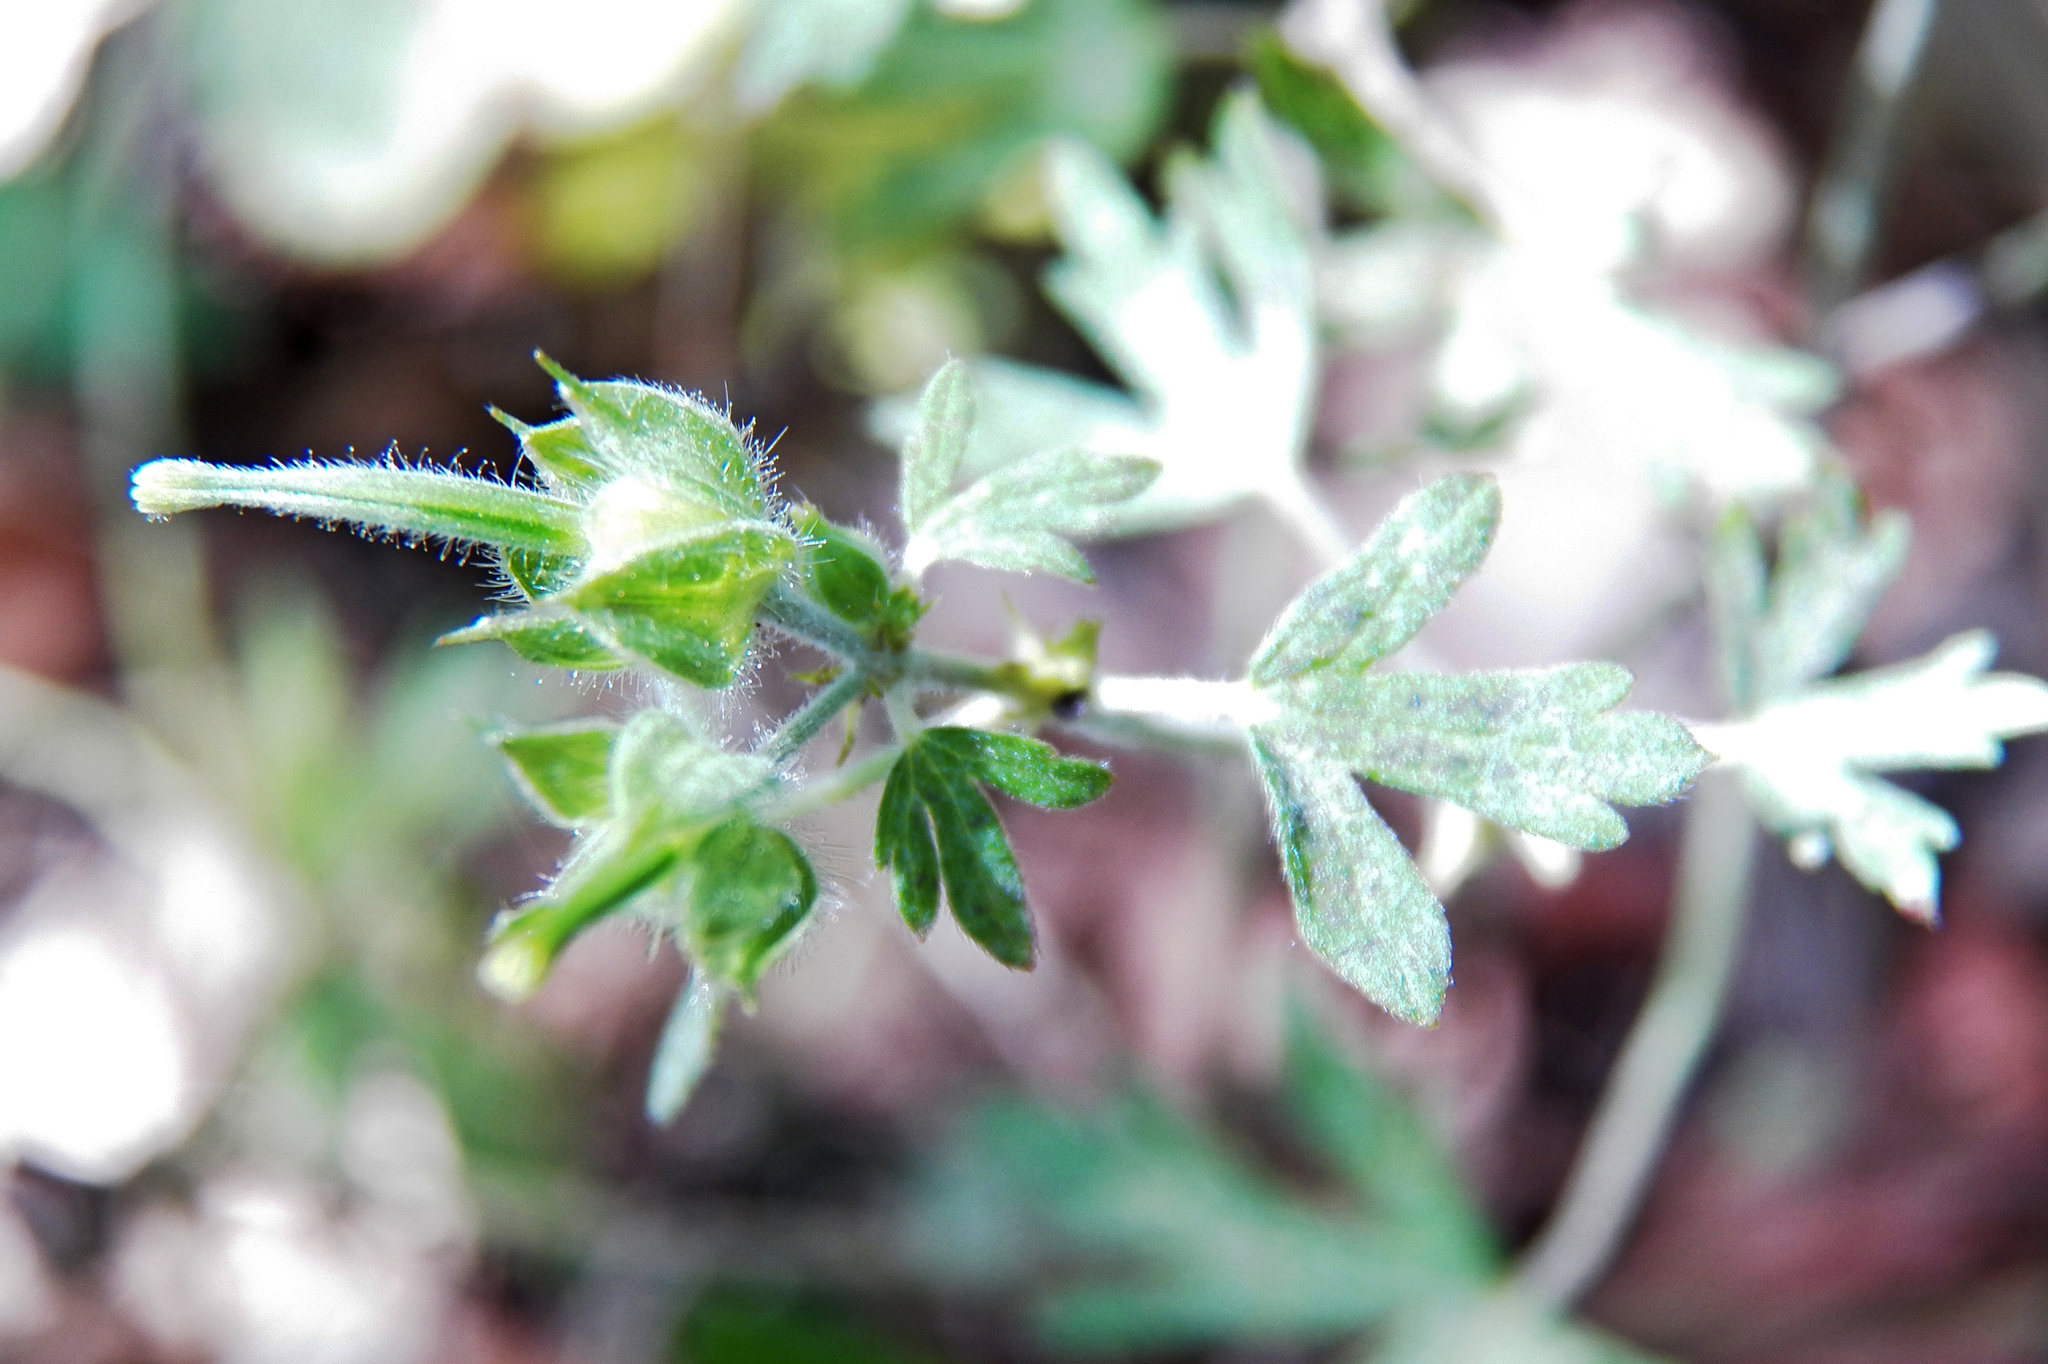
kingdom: Plantae
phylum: Tracheophyta
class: Magnoliopsida
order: Geraniales
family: Geraniaceae
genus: Geranium
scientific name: Geranium carolinianum
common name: Carolina crane's-bill
